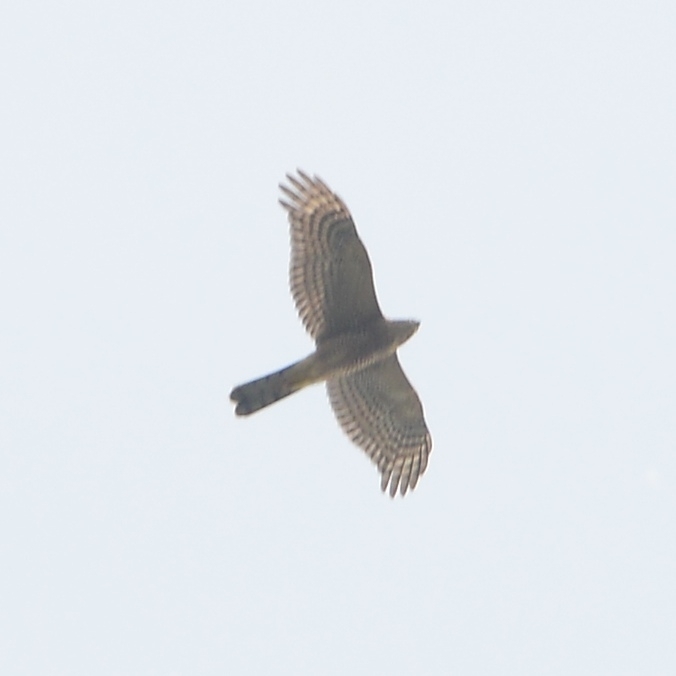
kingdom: Animalia
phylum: Chordata
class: Aves
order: Accipitriformes
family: Accipitridae
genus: Accipiter
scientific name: Accipiter nisus
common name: Eurasian sparrowhawk
